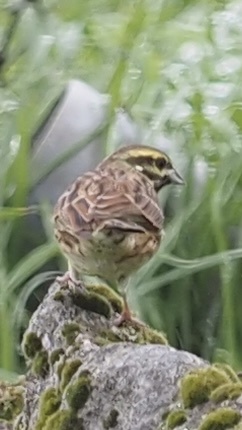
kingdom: Animalia
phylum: Chordata
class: Aves
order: Passeriformes
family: Emberizidae
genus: Emberiza
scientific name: Emberiza cirlus
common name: Cirl bunting
